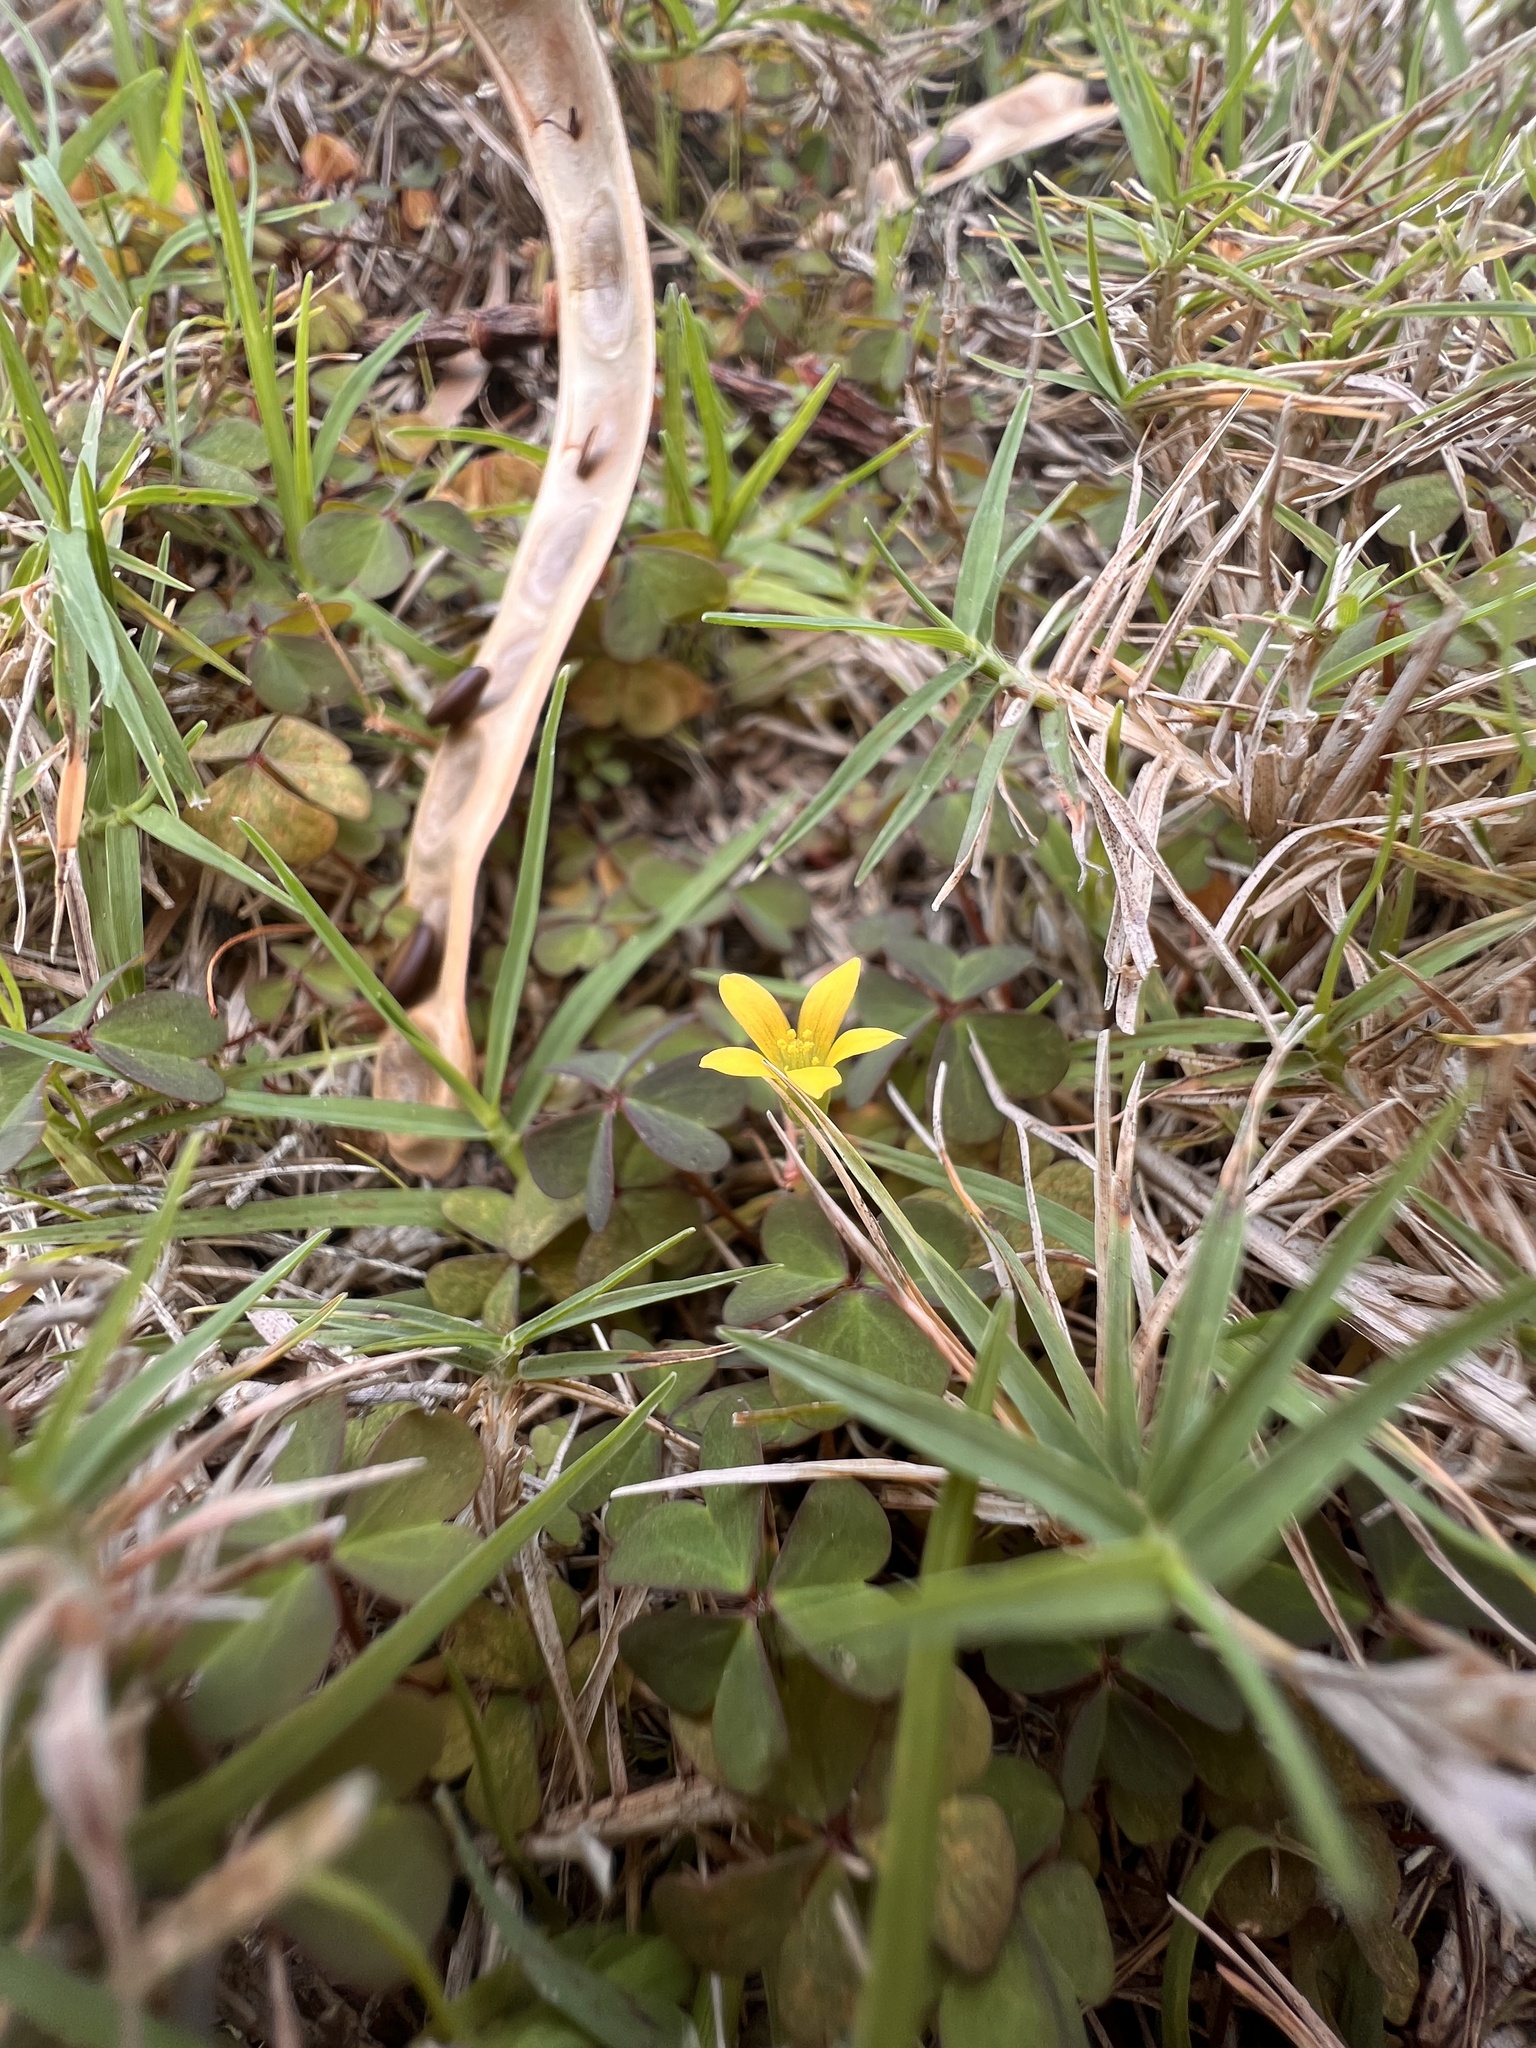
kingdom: Plantae
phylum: Tracheophyta
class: Magnoliopsida
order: Oxalidales
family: Oxalidaceae
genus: Oxalis
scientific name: Oxalis corniculata
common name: Procumbent yellow-sorrel
